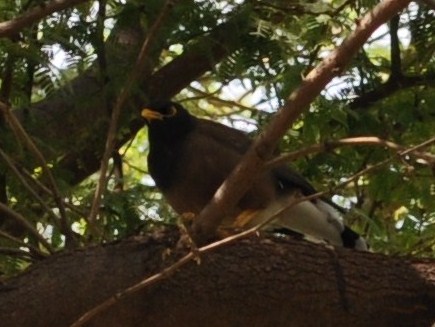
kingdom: Animalia
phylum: Chordata
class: Aves
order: Passeriformes
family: Sturnidae
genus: Acridotheres
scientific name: Acridotheres tristis
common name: Common myna
